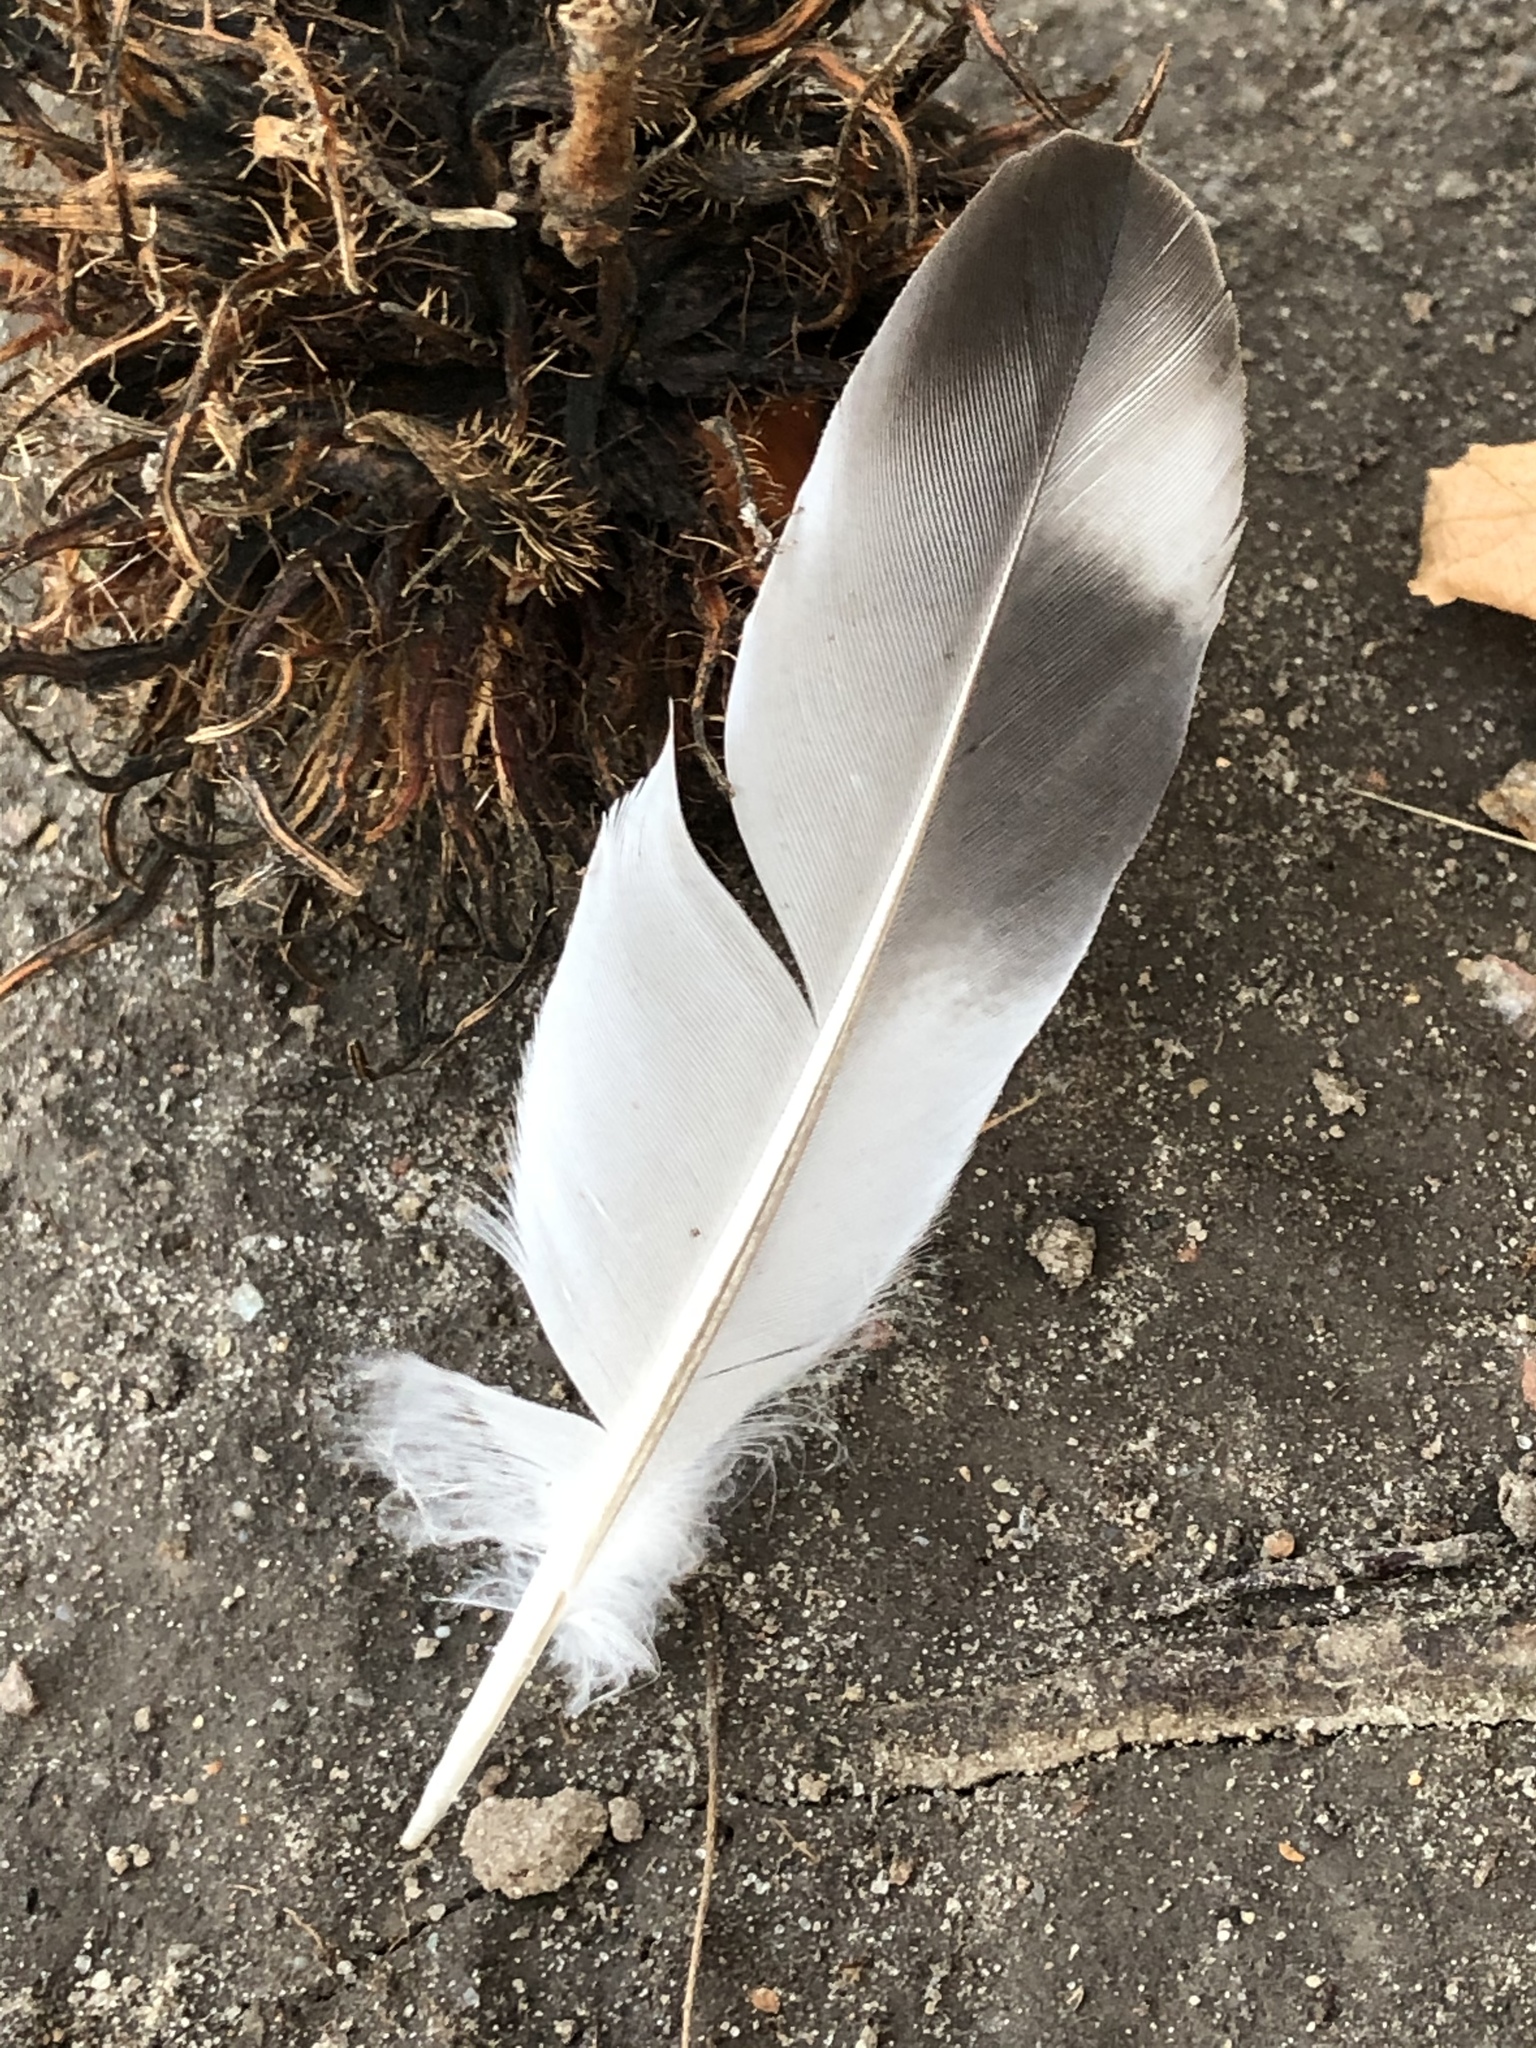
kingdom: Animalia
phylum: Chordata
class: Aves
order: Columbiformes
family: Columbidae
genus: Columba
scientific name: Columba livia
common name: Rock pigeon
